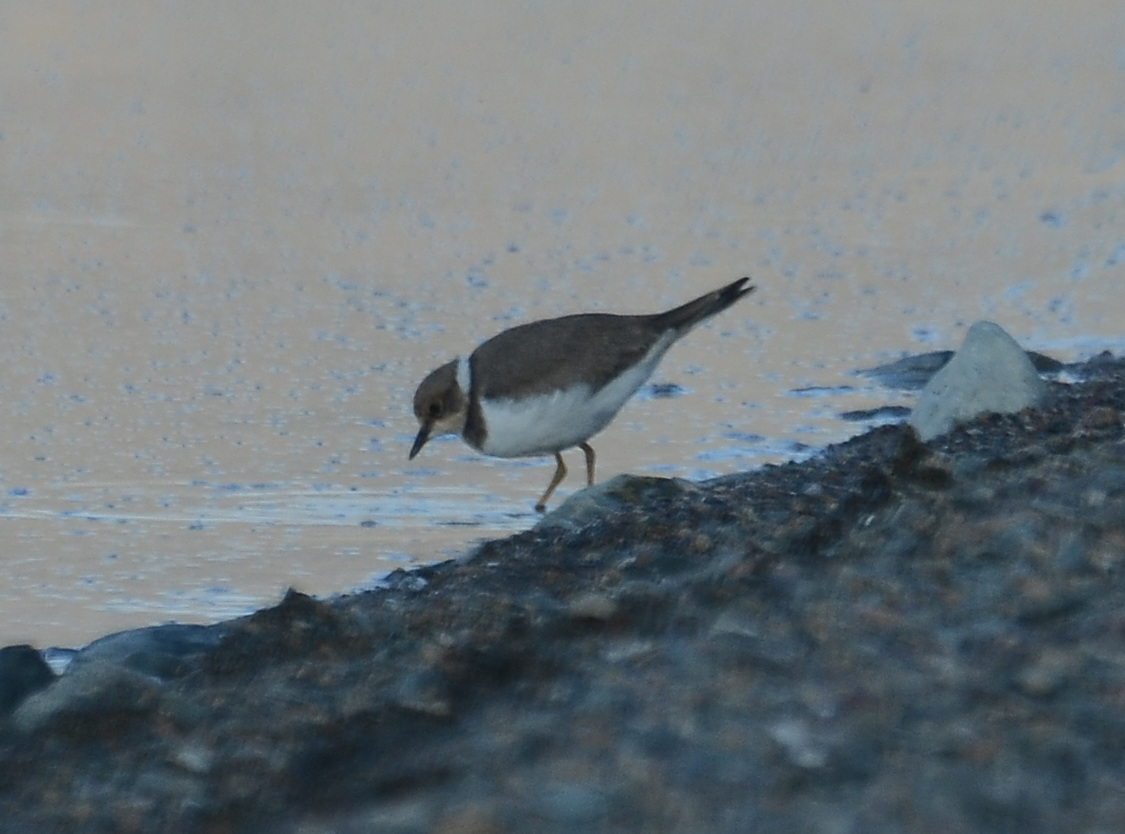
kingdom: Animalia
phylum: Chordata
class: Aves
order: Charadriiformes
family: Charadriidae
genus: Charadrius
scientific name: Charadrius dubius
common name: Little ringed plover
